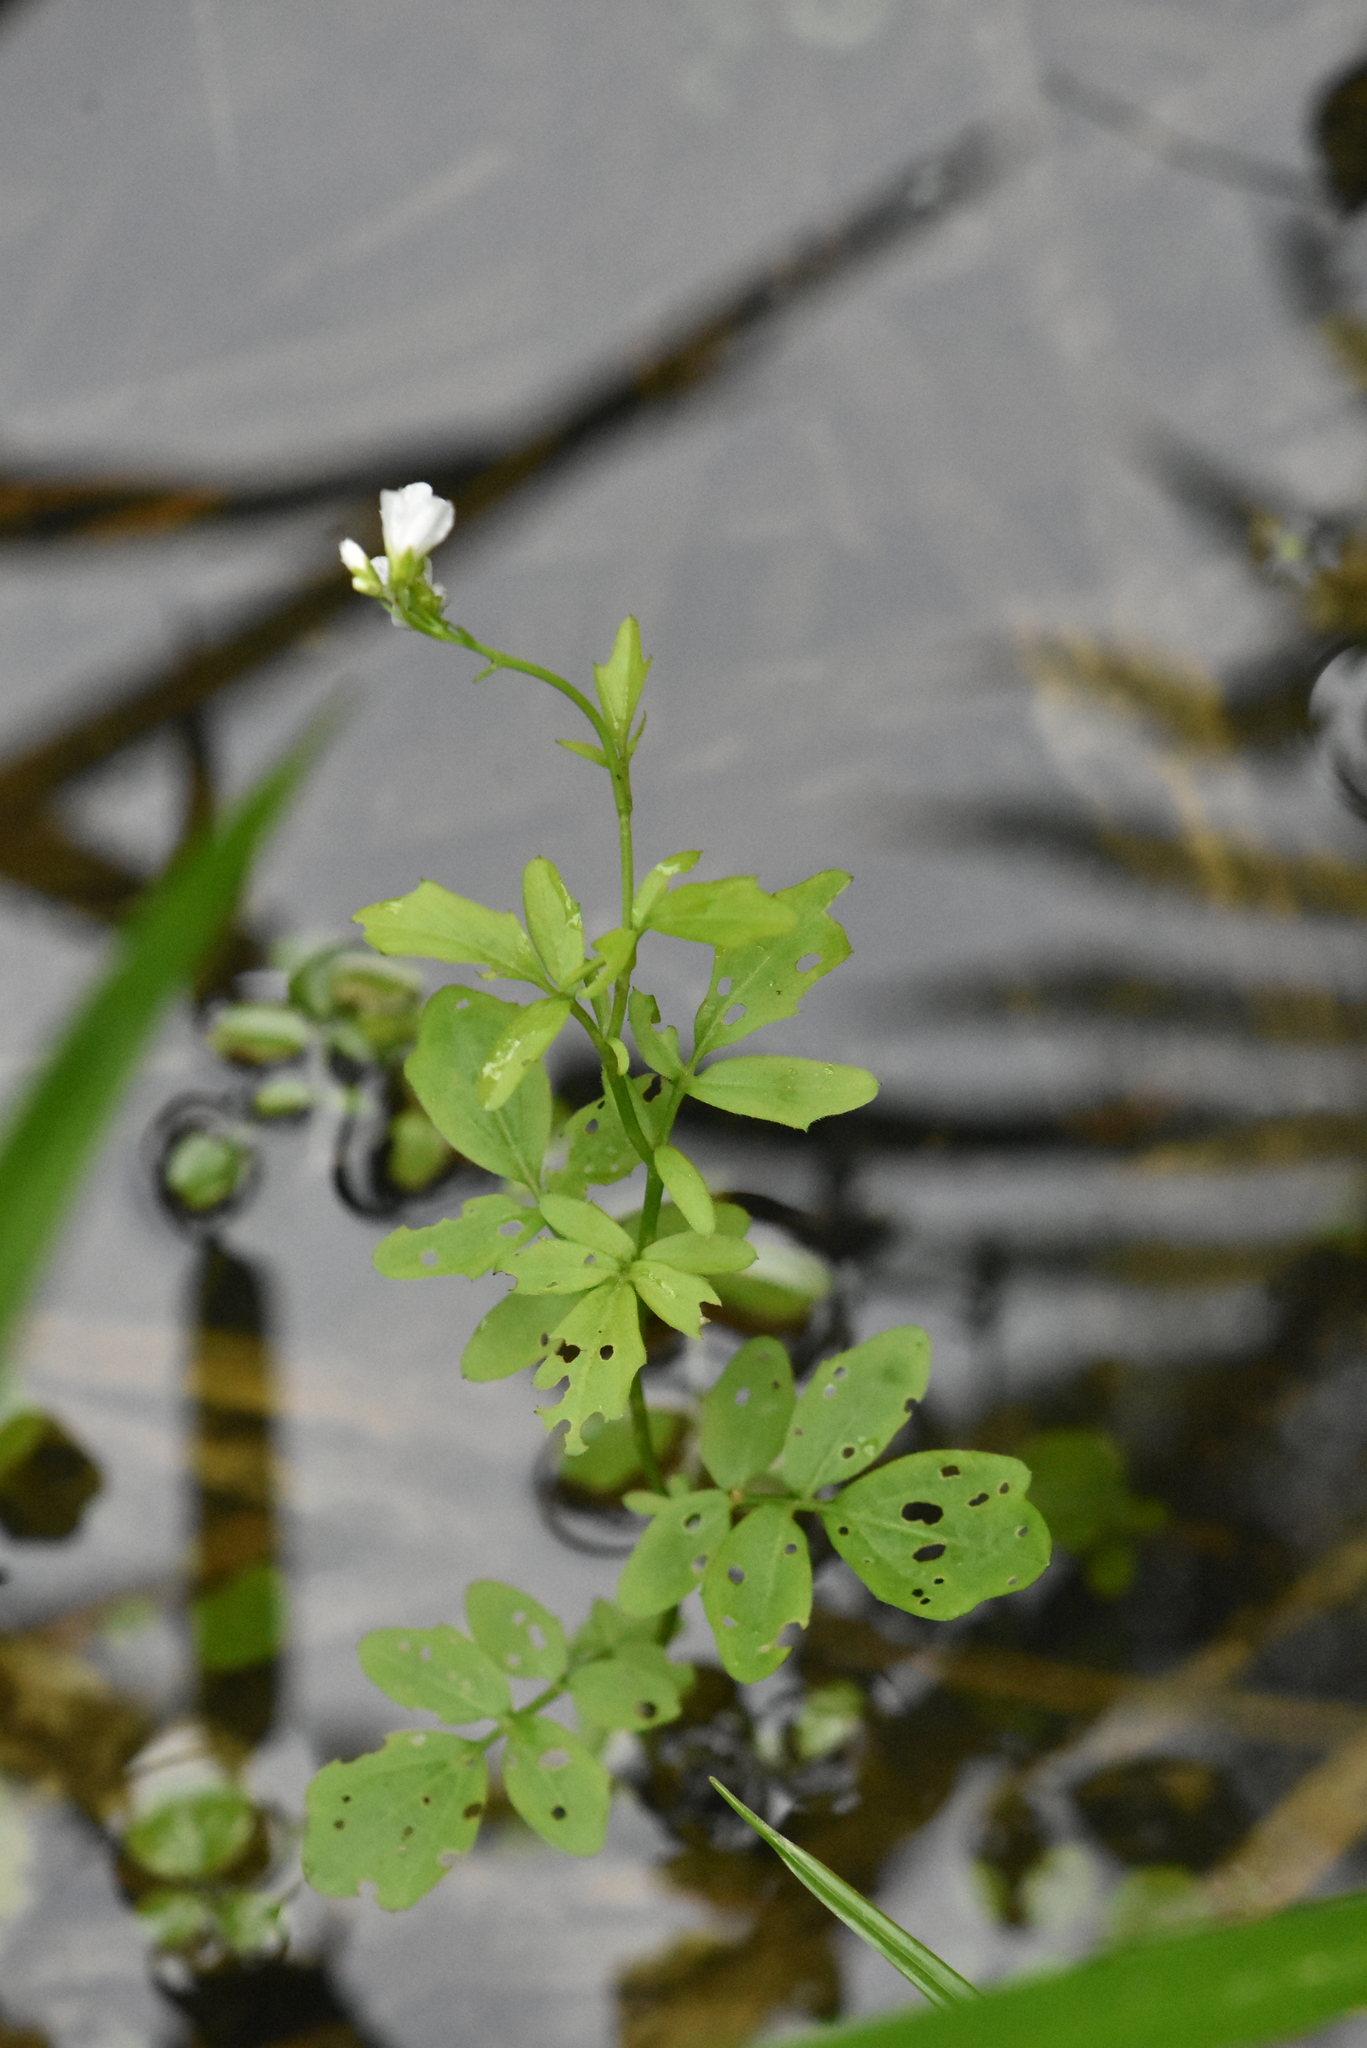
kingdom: Plantae
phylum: Tracheophyta
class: Magnoliopsida
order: Brassicales
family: Brassicaceae
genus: Cardamine
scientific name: Cardamine amara
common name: Large bitter-cress
